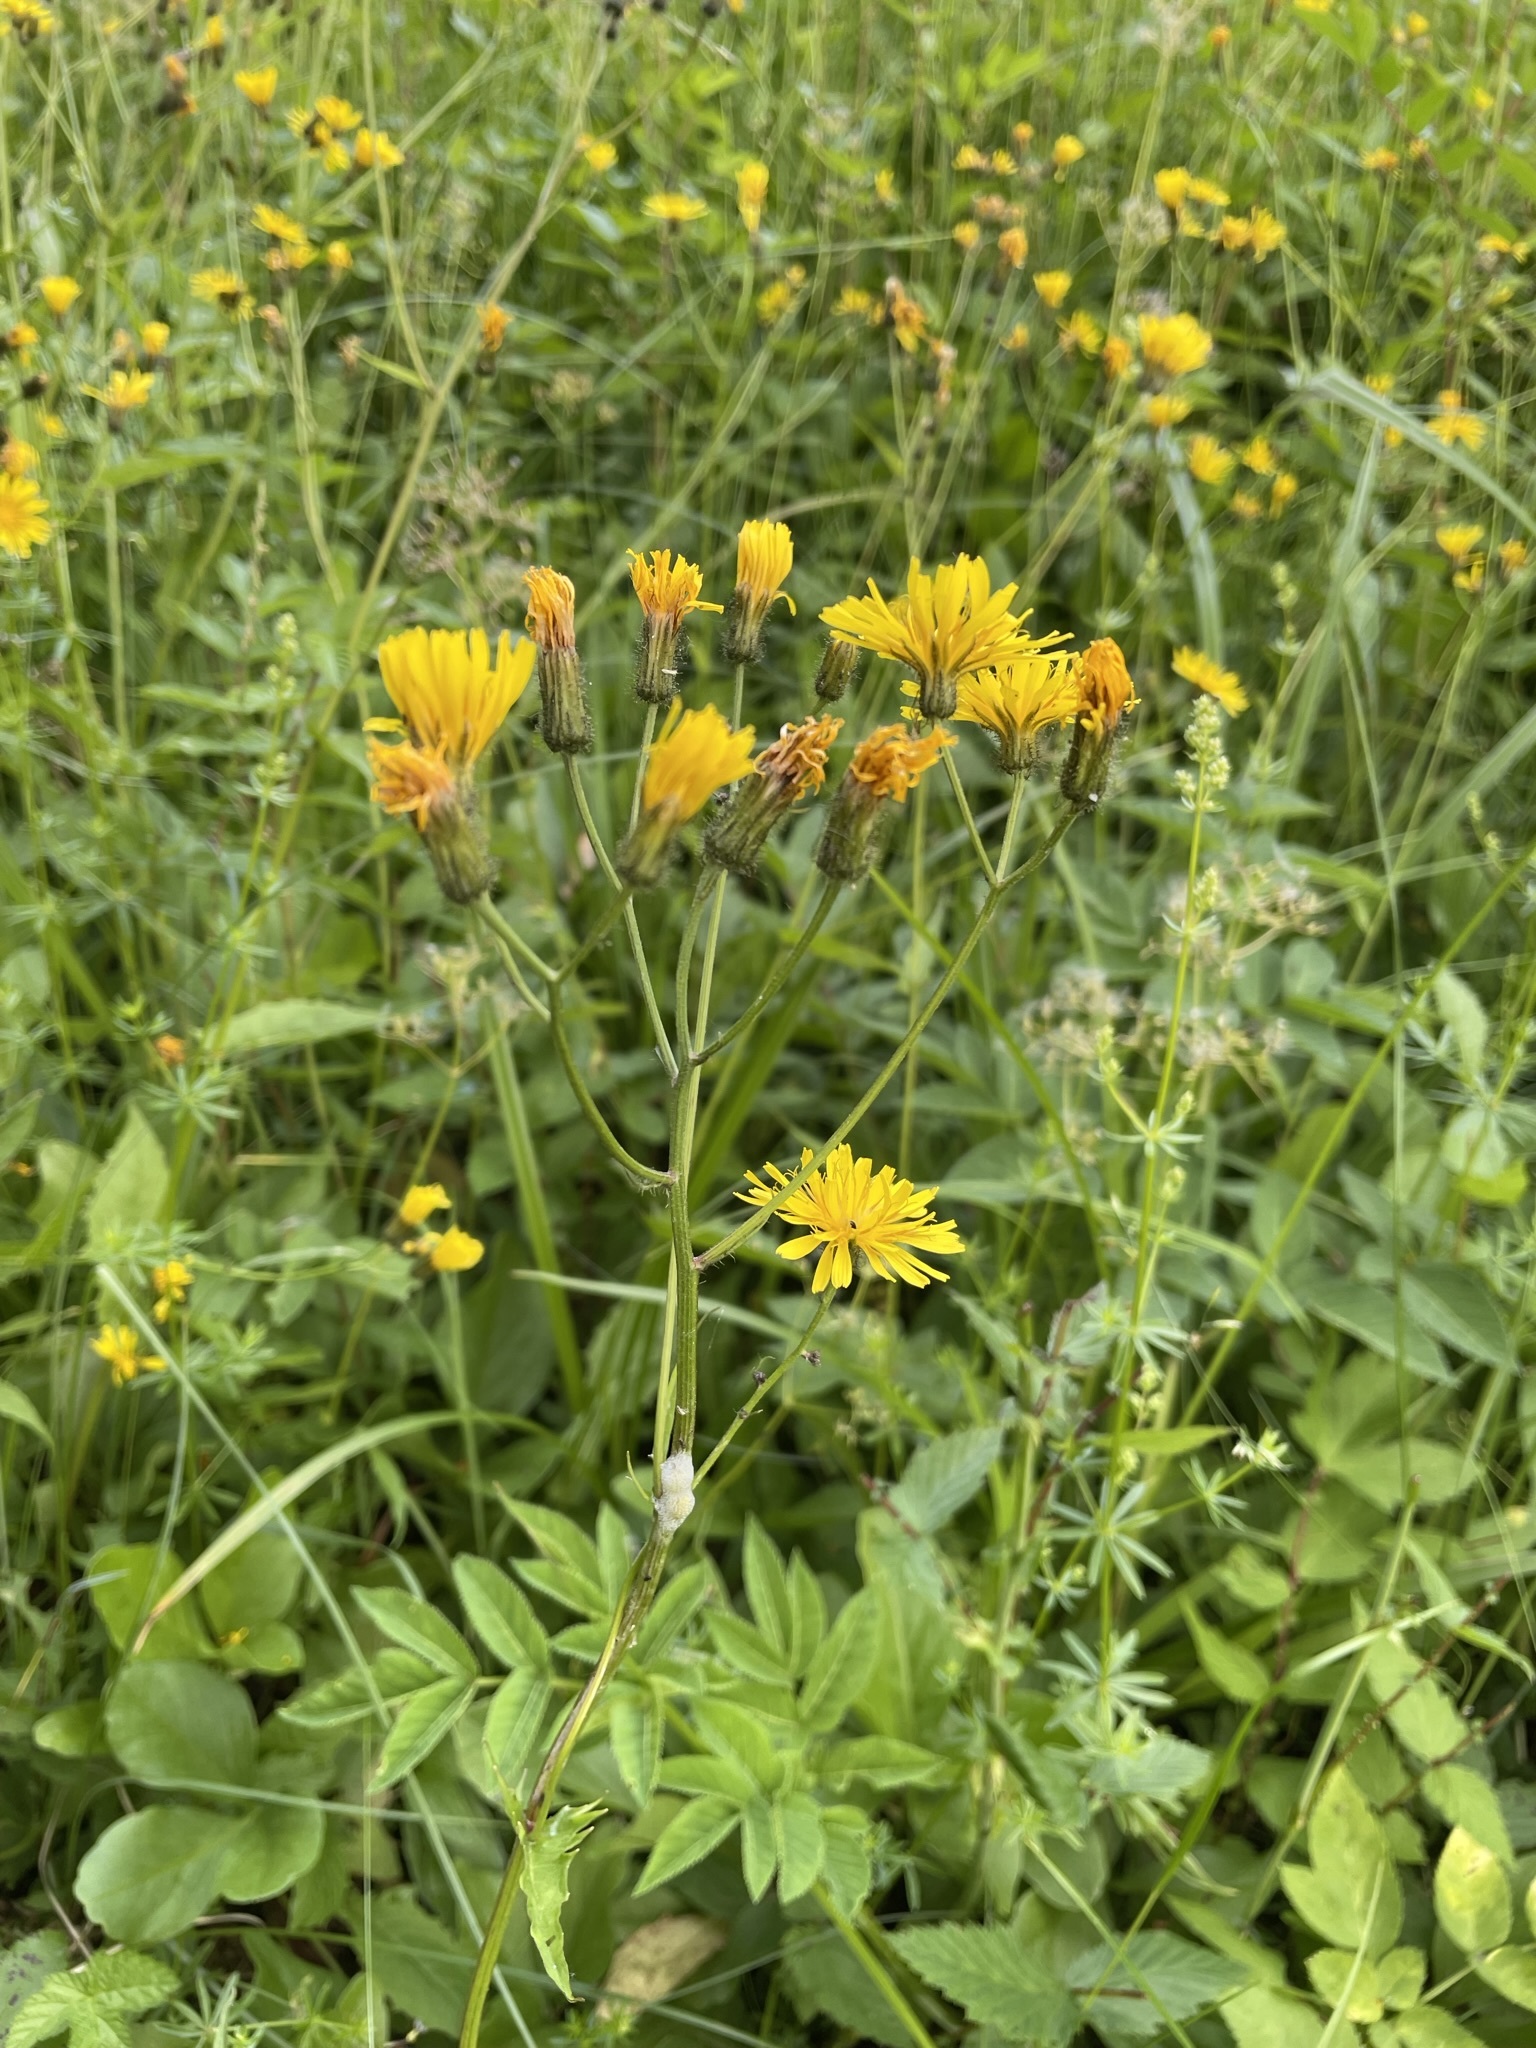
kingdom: Plantae
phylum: Tracheophyta
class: Magnoliopsida
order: Asterales
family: Asteraceae
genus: Crepis
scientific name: Crepis paludosa
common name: Marsh hawk's-beard
